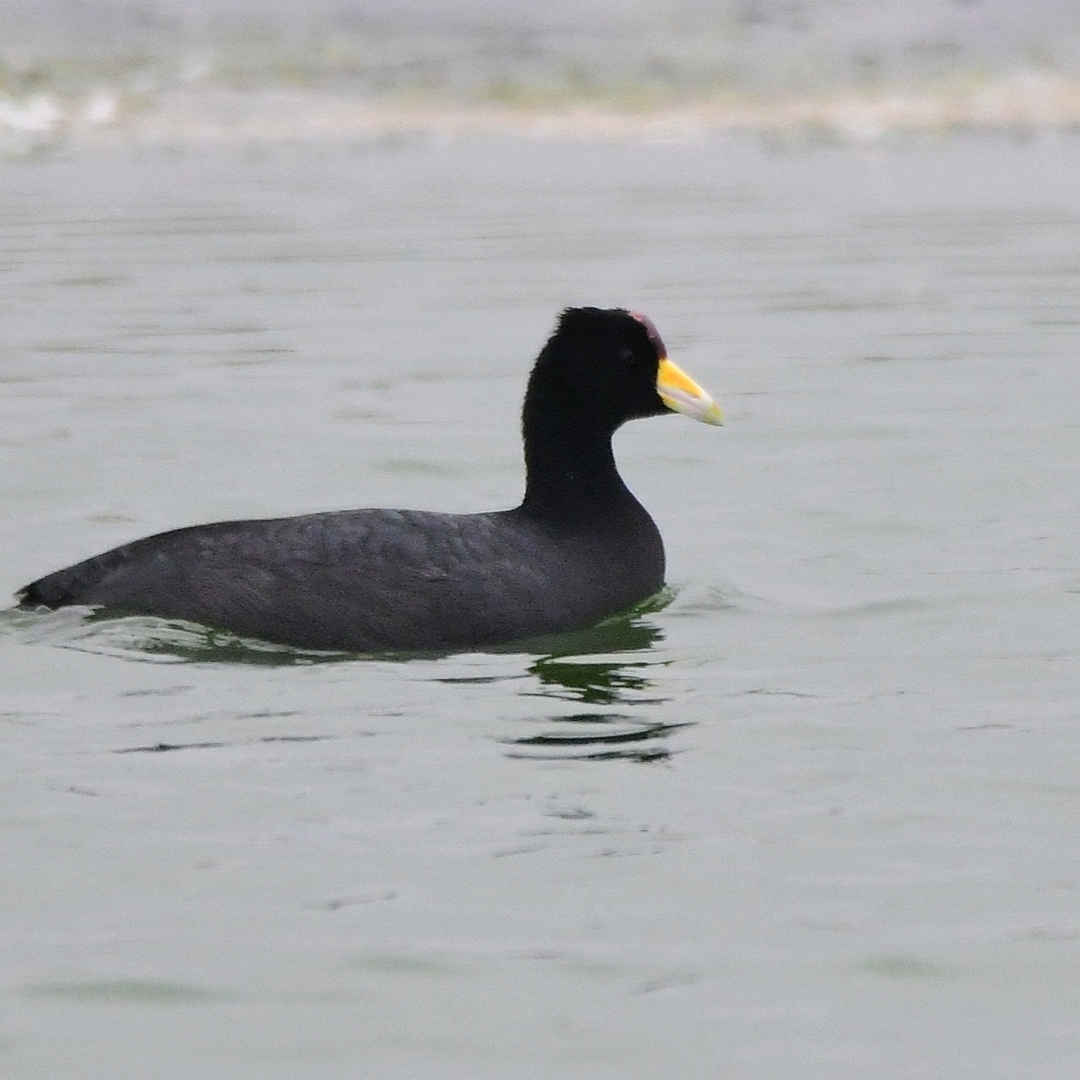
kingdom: Animalia
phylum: Chordata
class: Aves
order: Gruiformes
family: Rallidae
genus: Fulica
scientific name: Fulica ardesiaca
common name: Andean coot
